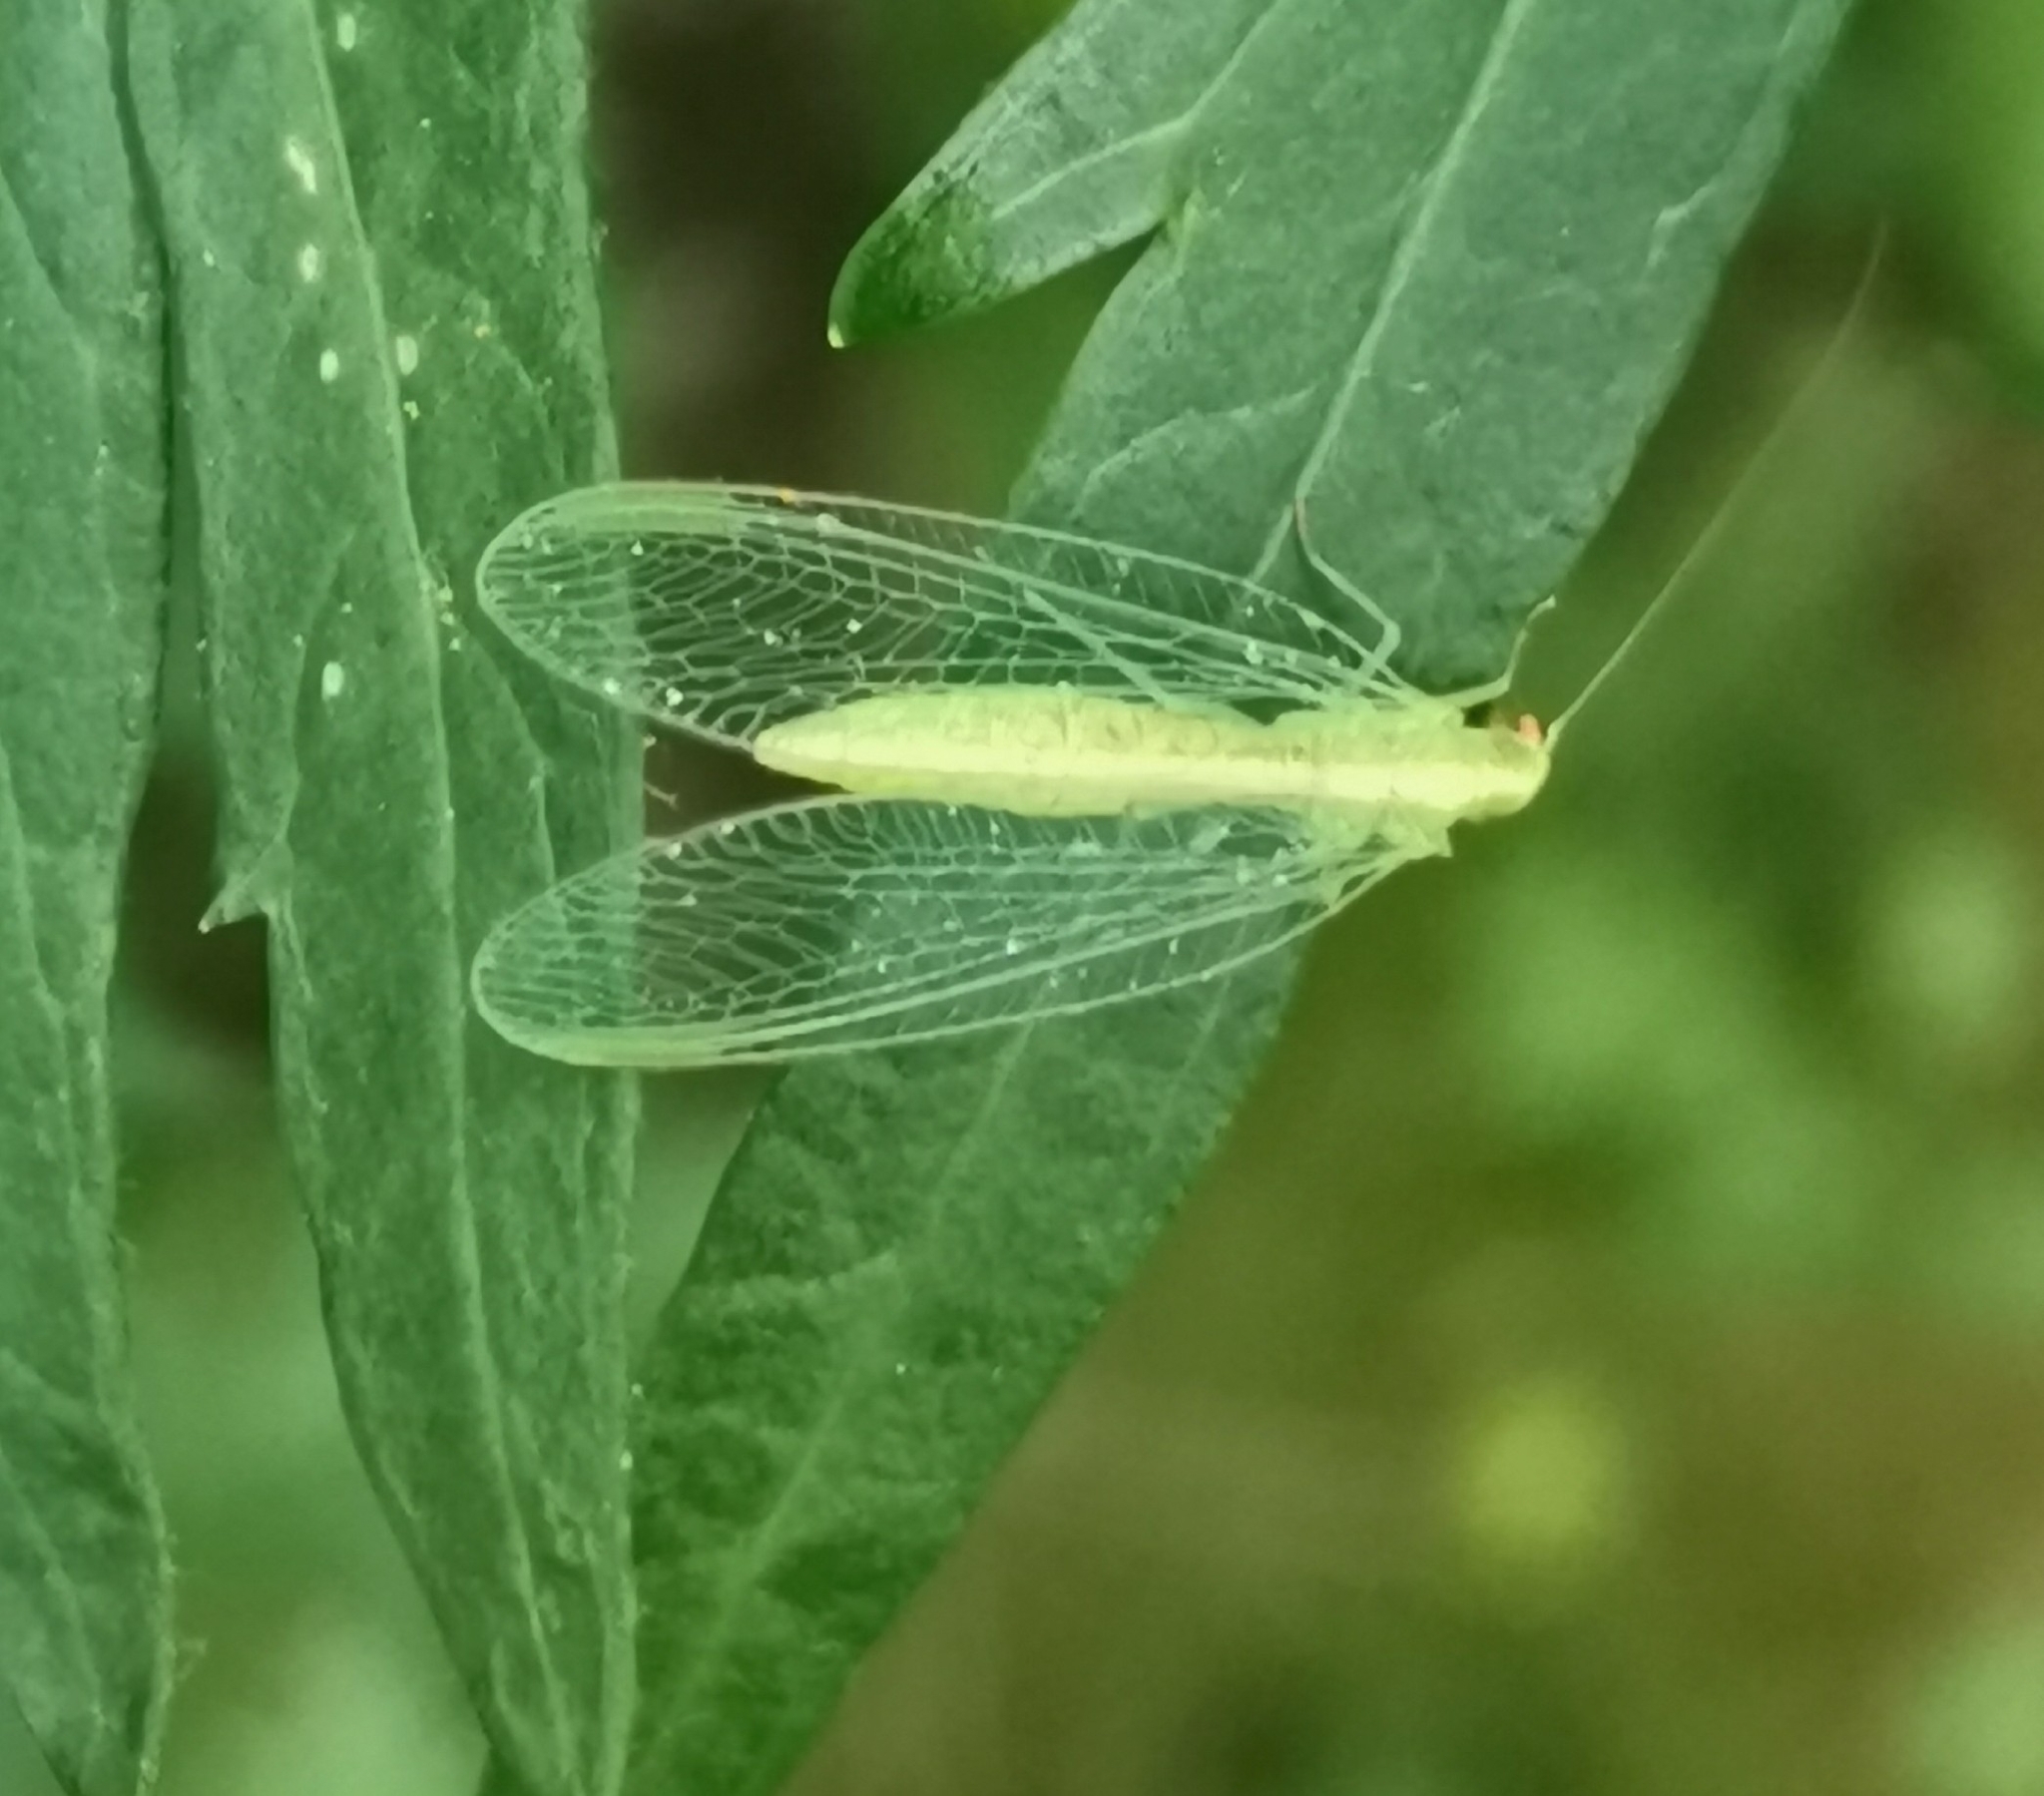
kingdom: Animalia
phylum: Arthropoda
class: Insecta
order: Neuroptera
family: Chrysopidae
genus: Chrysoperla
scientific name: Chrysoperla
